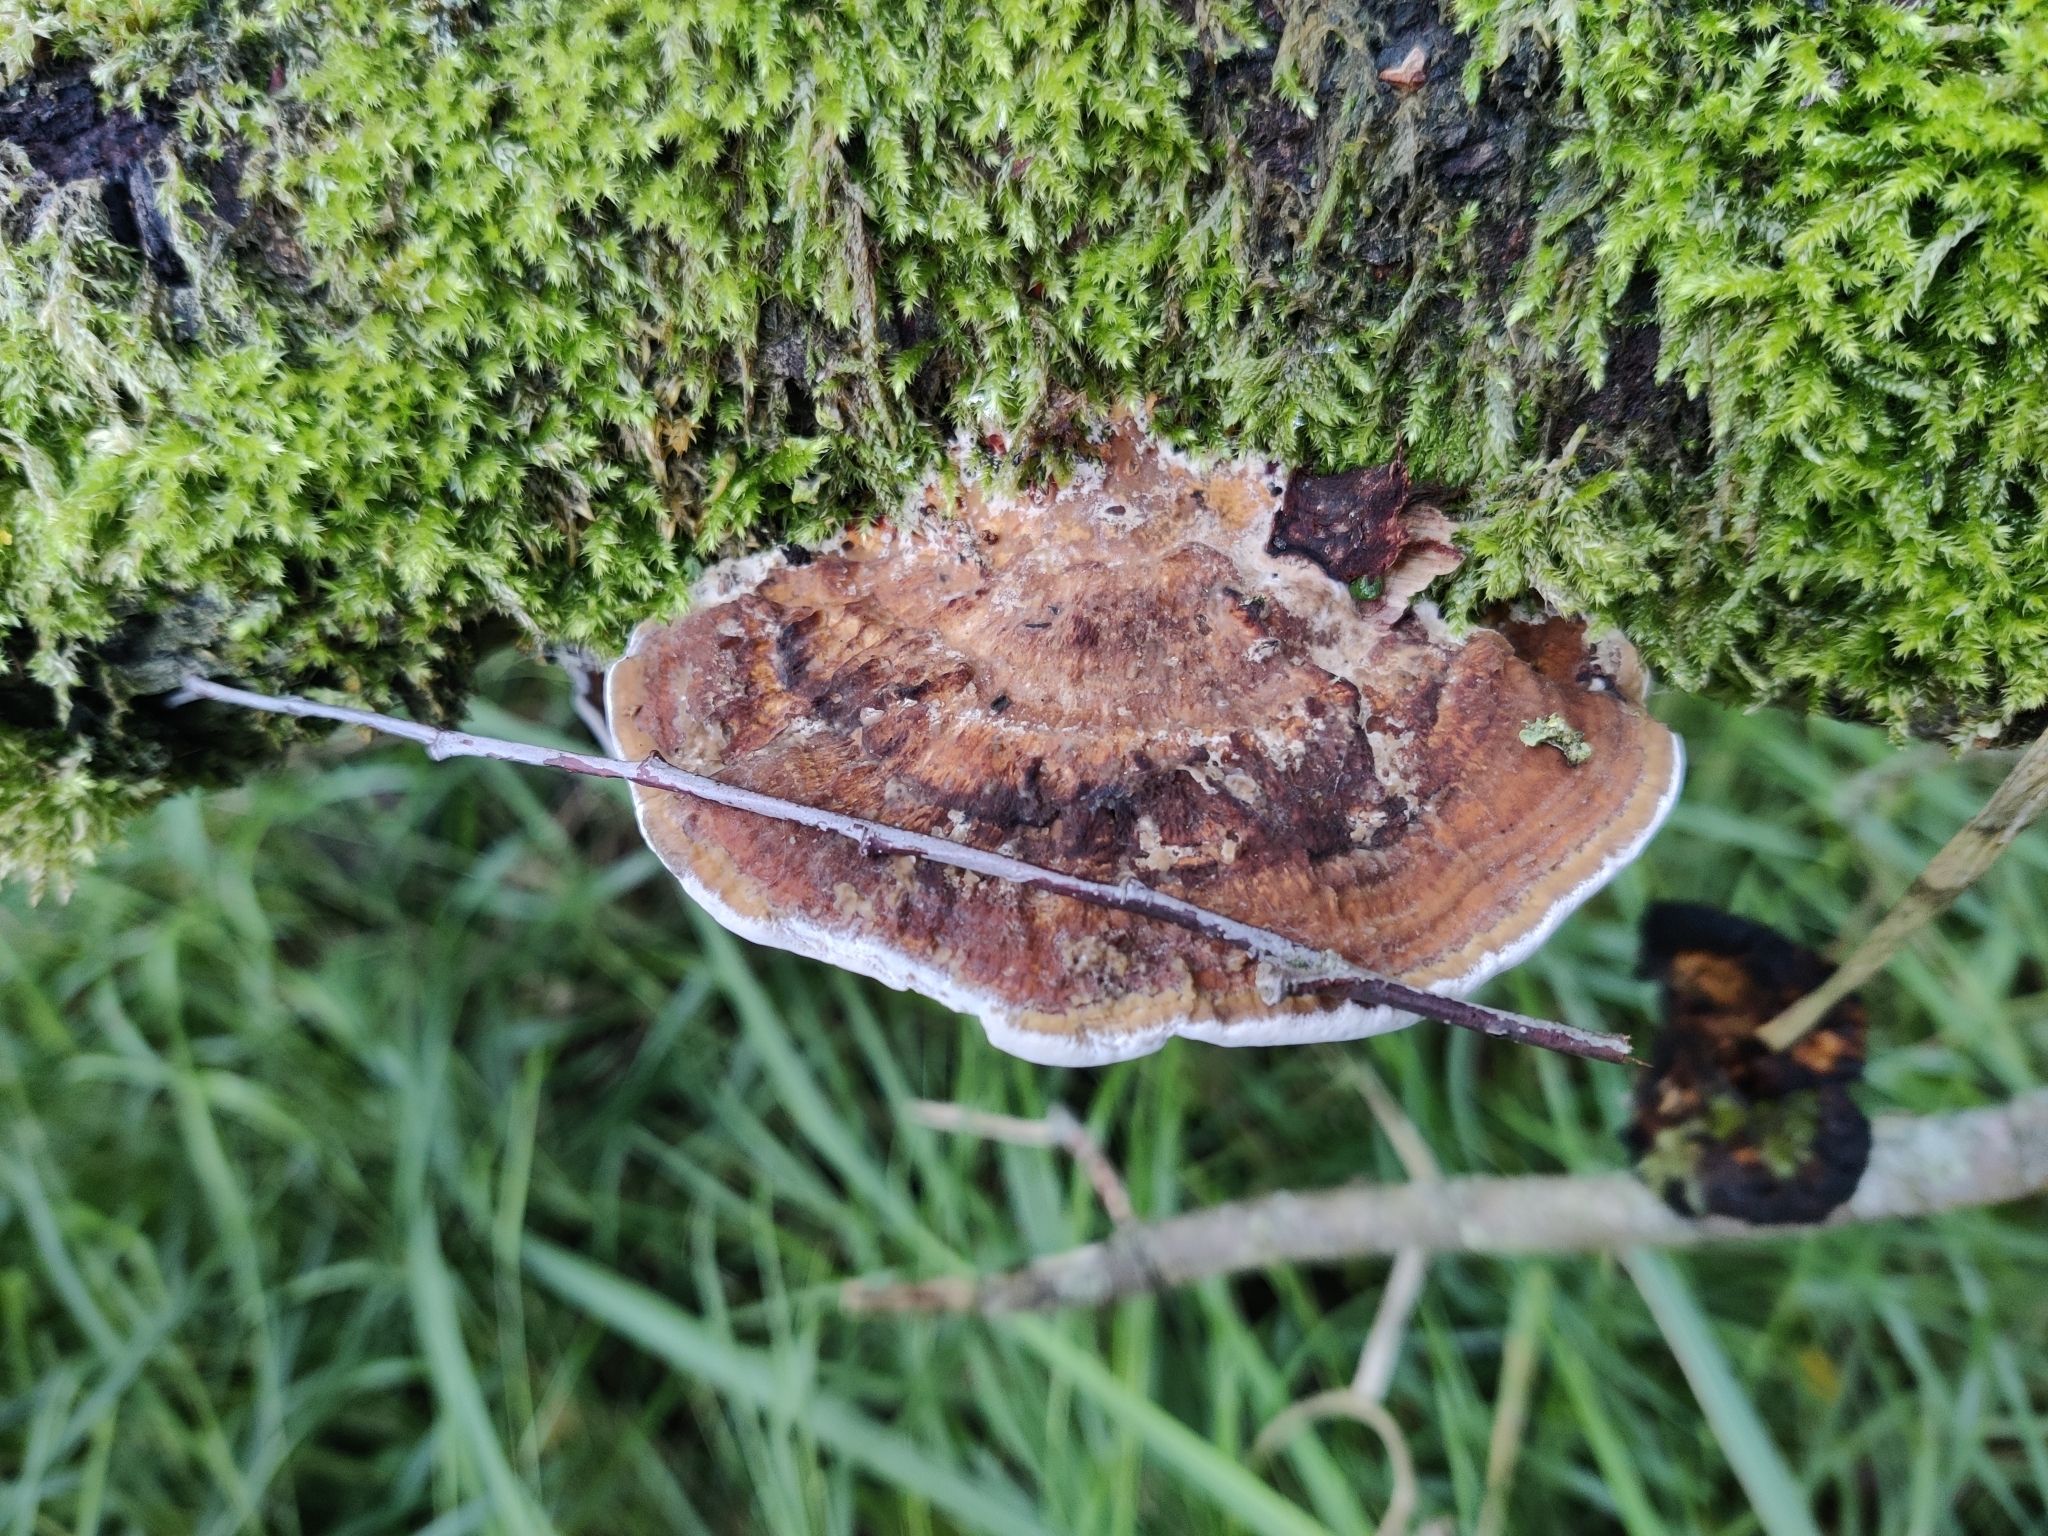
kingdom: Fungi
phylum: Basidiomycota
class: Agaricomycetes
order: Polyporales
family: Polyporaceae
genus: Daedaleopsis
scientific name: Daedaleopsis confragosa
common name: Blushing bracket
